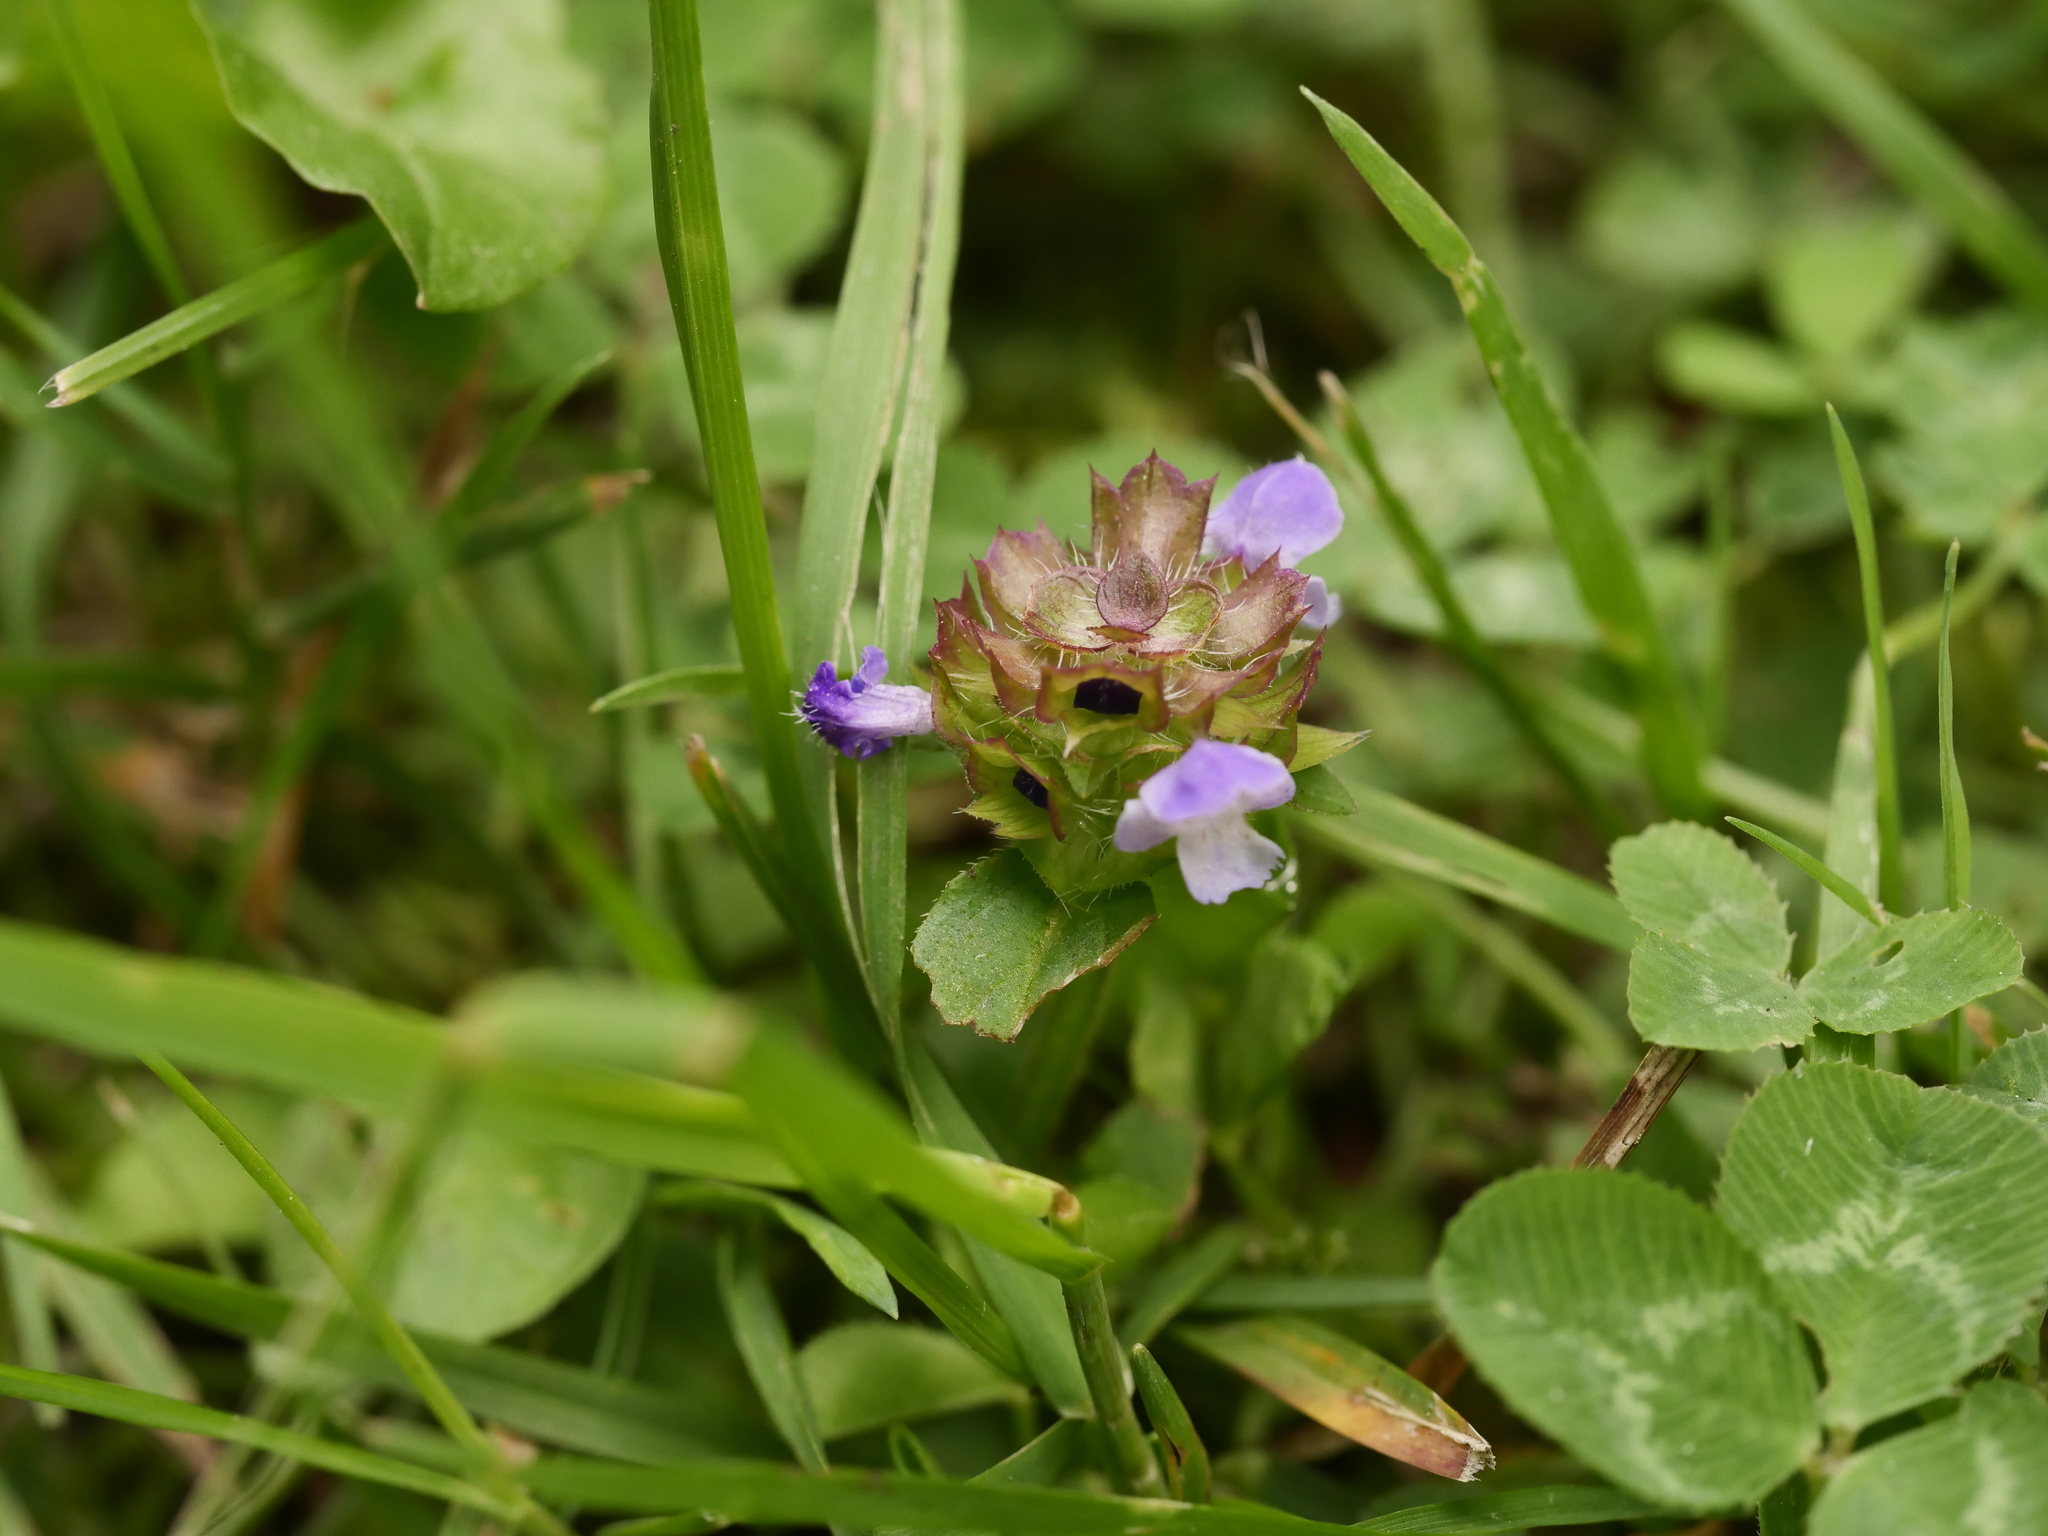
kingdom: Plantae
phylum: Tracheophyta
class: Magnoliopsida
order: Lamiales
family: Lamiaceae
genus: Prunella
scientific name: Prunella vulgaris
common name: Heal-all
